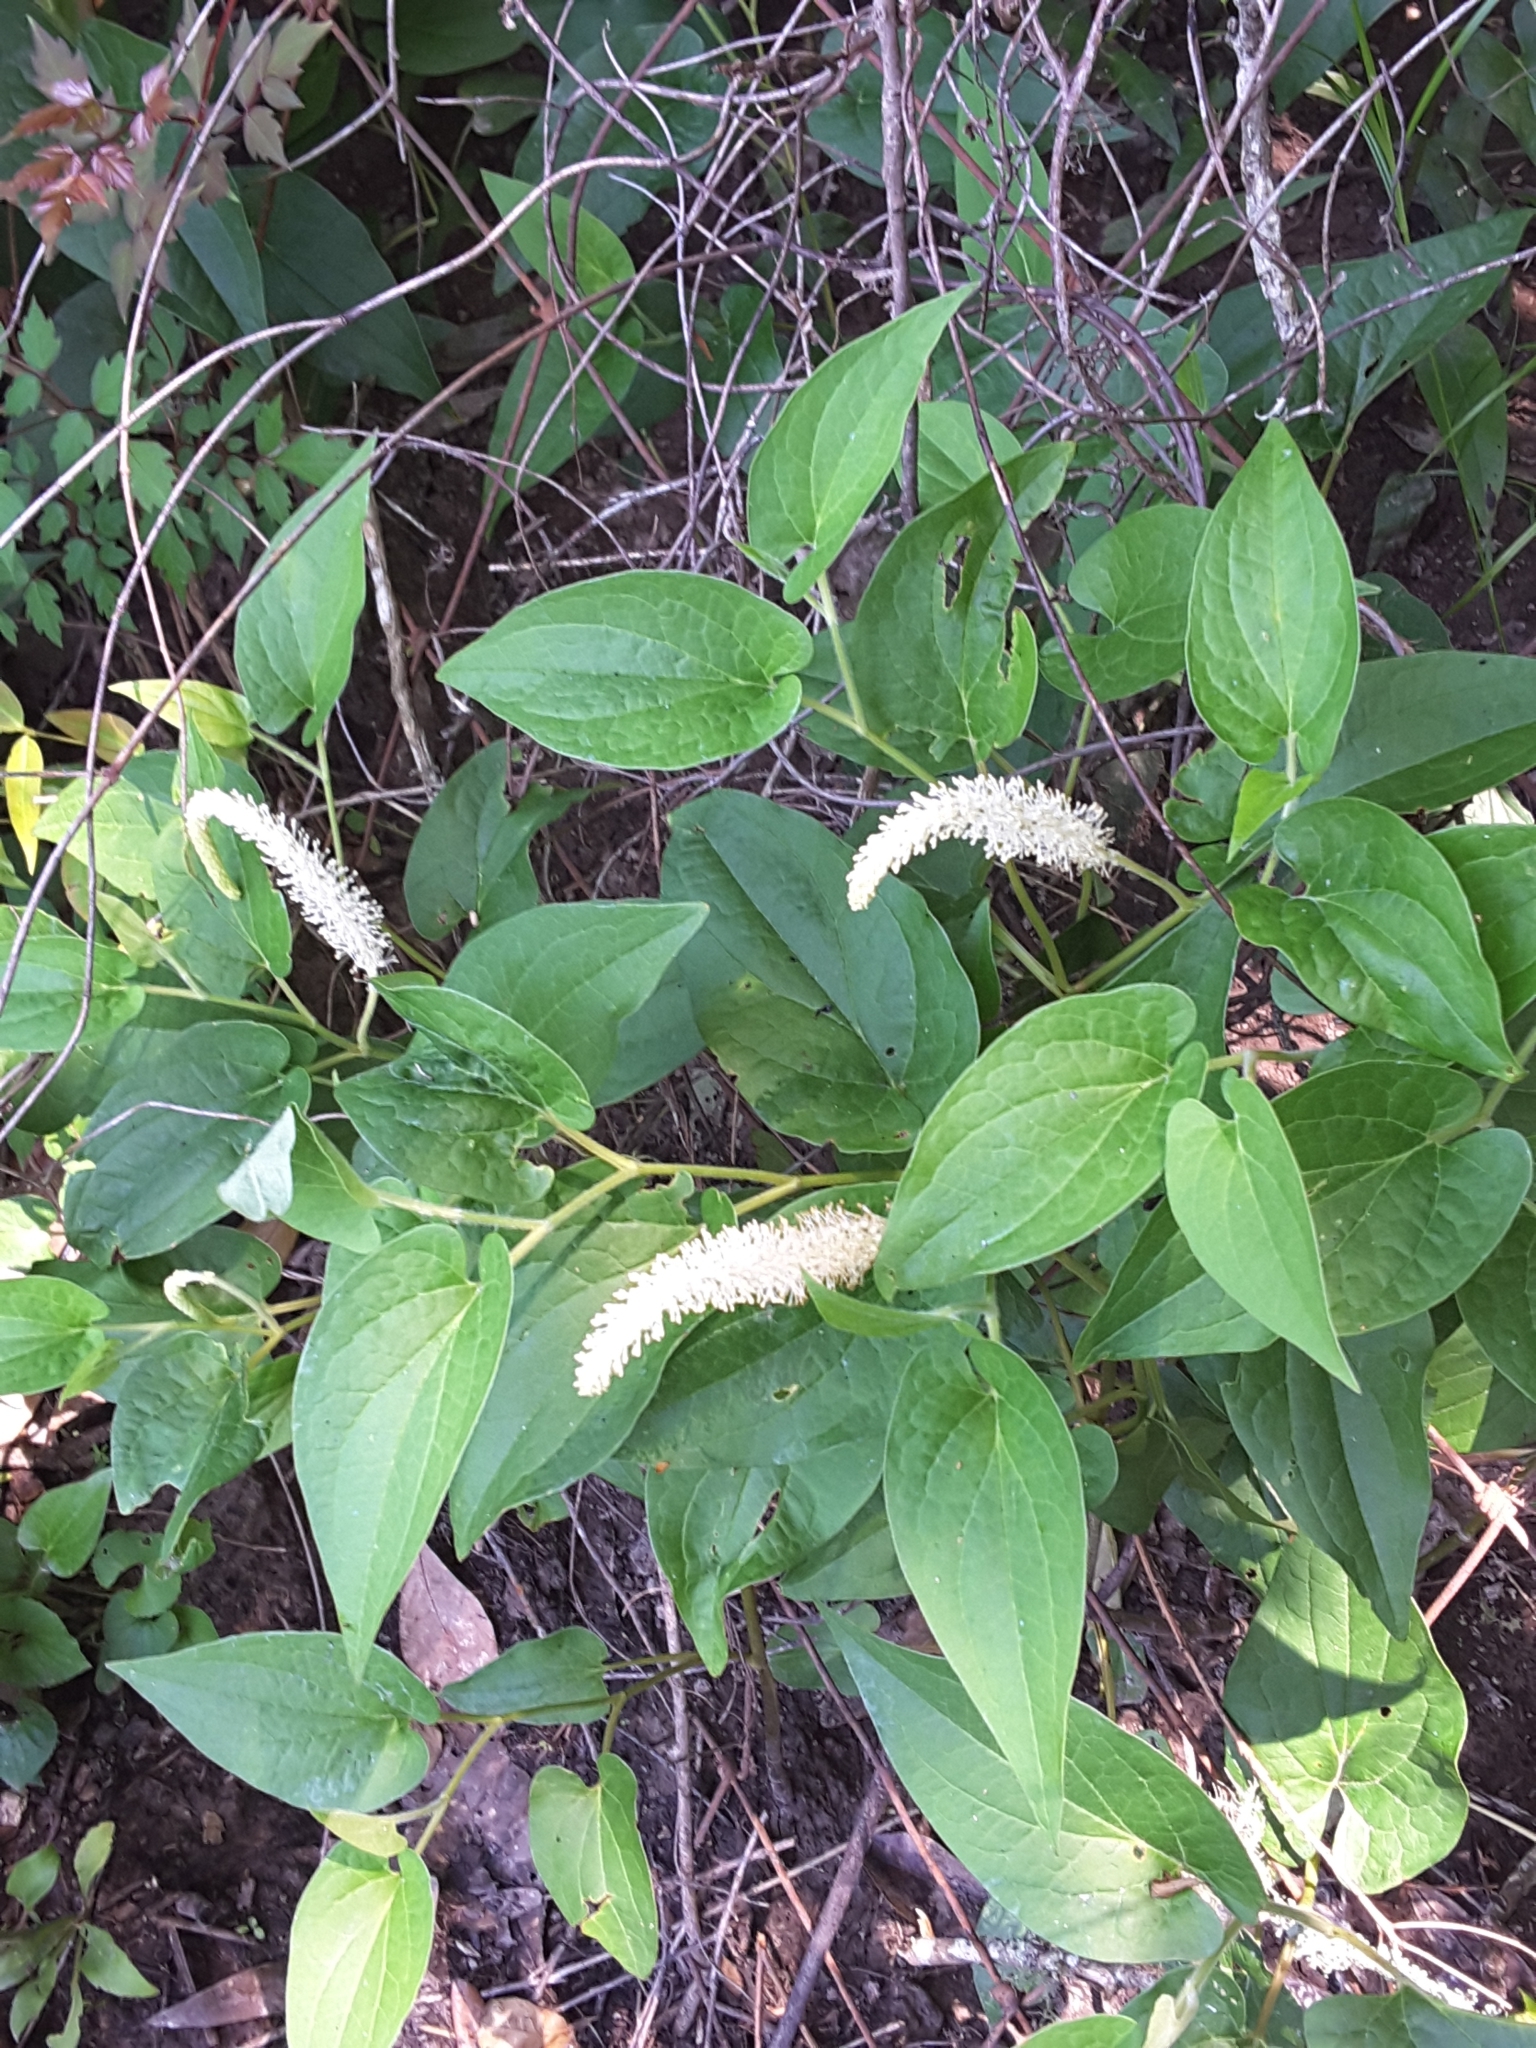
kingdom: Plantae
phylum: Tracheophyta
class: Magnoliopsida
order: Piperales
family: Saururaceae
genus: Saururus
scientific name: Saururus cernuus
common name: Lizard's-tail
